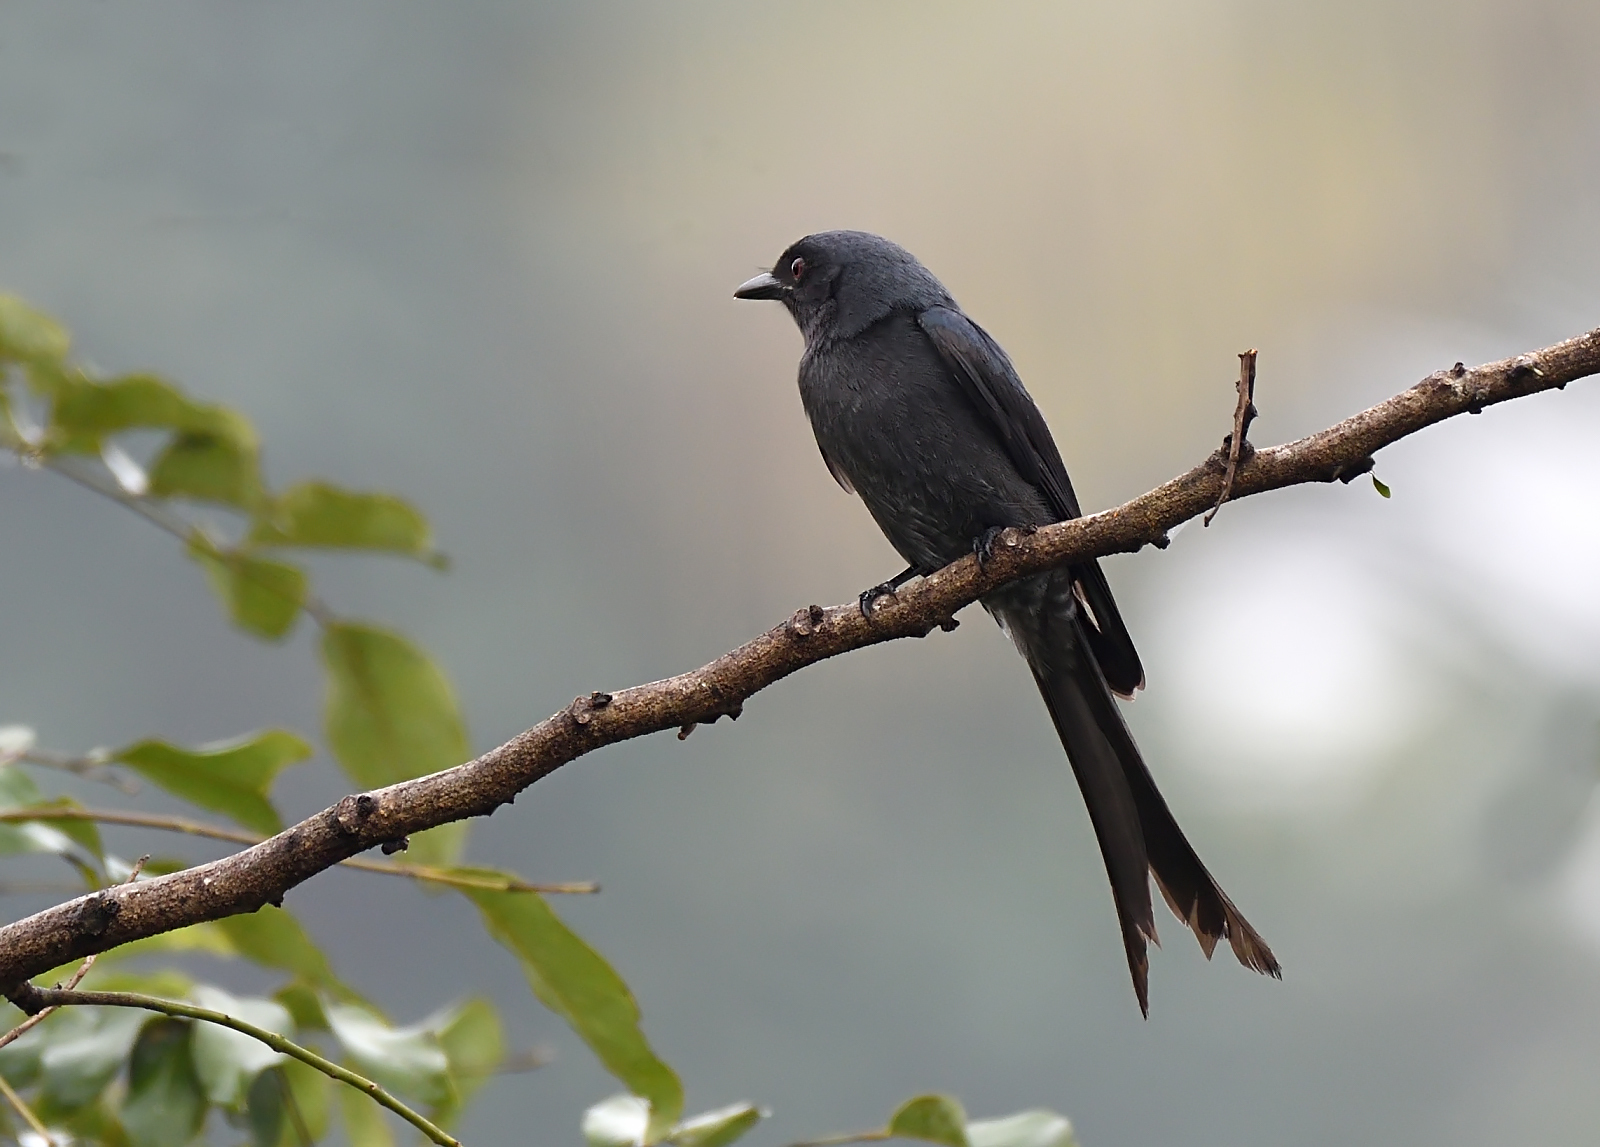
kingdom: Animalia
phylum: Chordata
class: Aves
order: Passeriformes
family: Dicruridae
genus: Dicrurus
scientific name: Dicrurus macrocercus
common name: Black drongo
